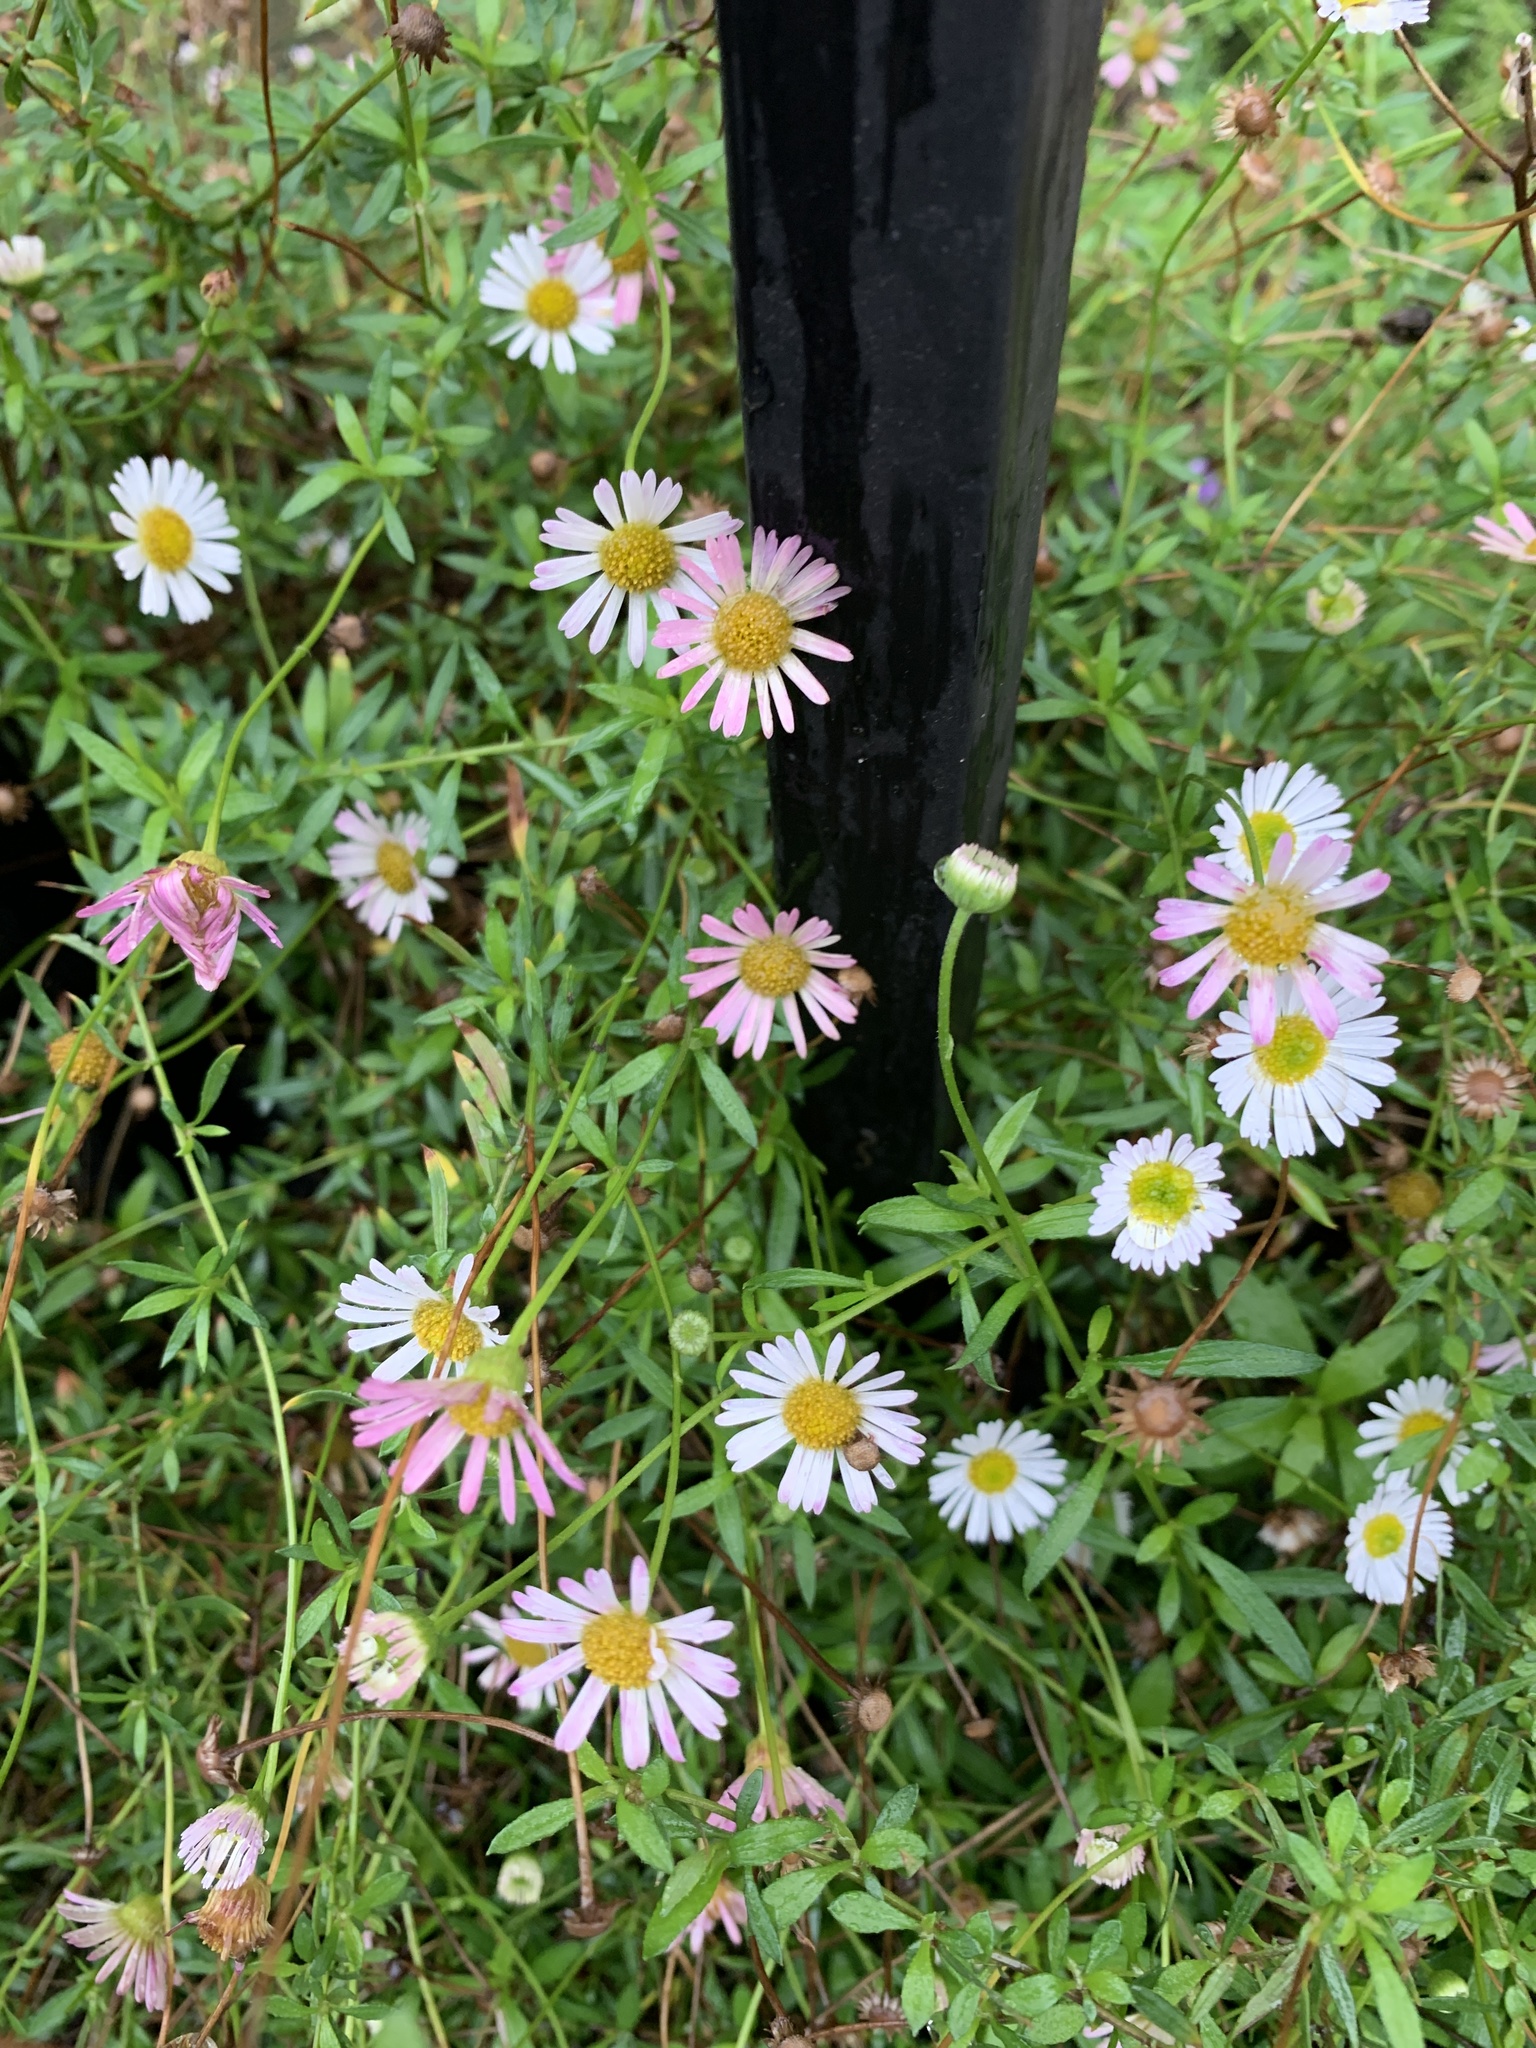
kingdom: Plantae
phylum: Tracheophyta
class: Magnoliopsida
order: Asterales
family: Asteraceae
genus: Erigeron
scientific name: Erigeron karvinskianus
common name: Mexican fleabane
